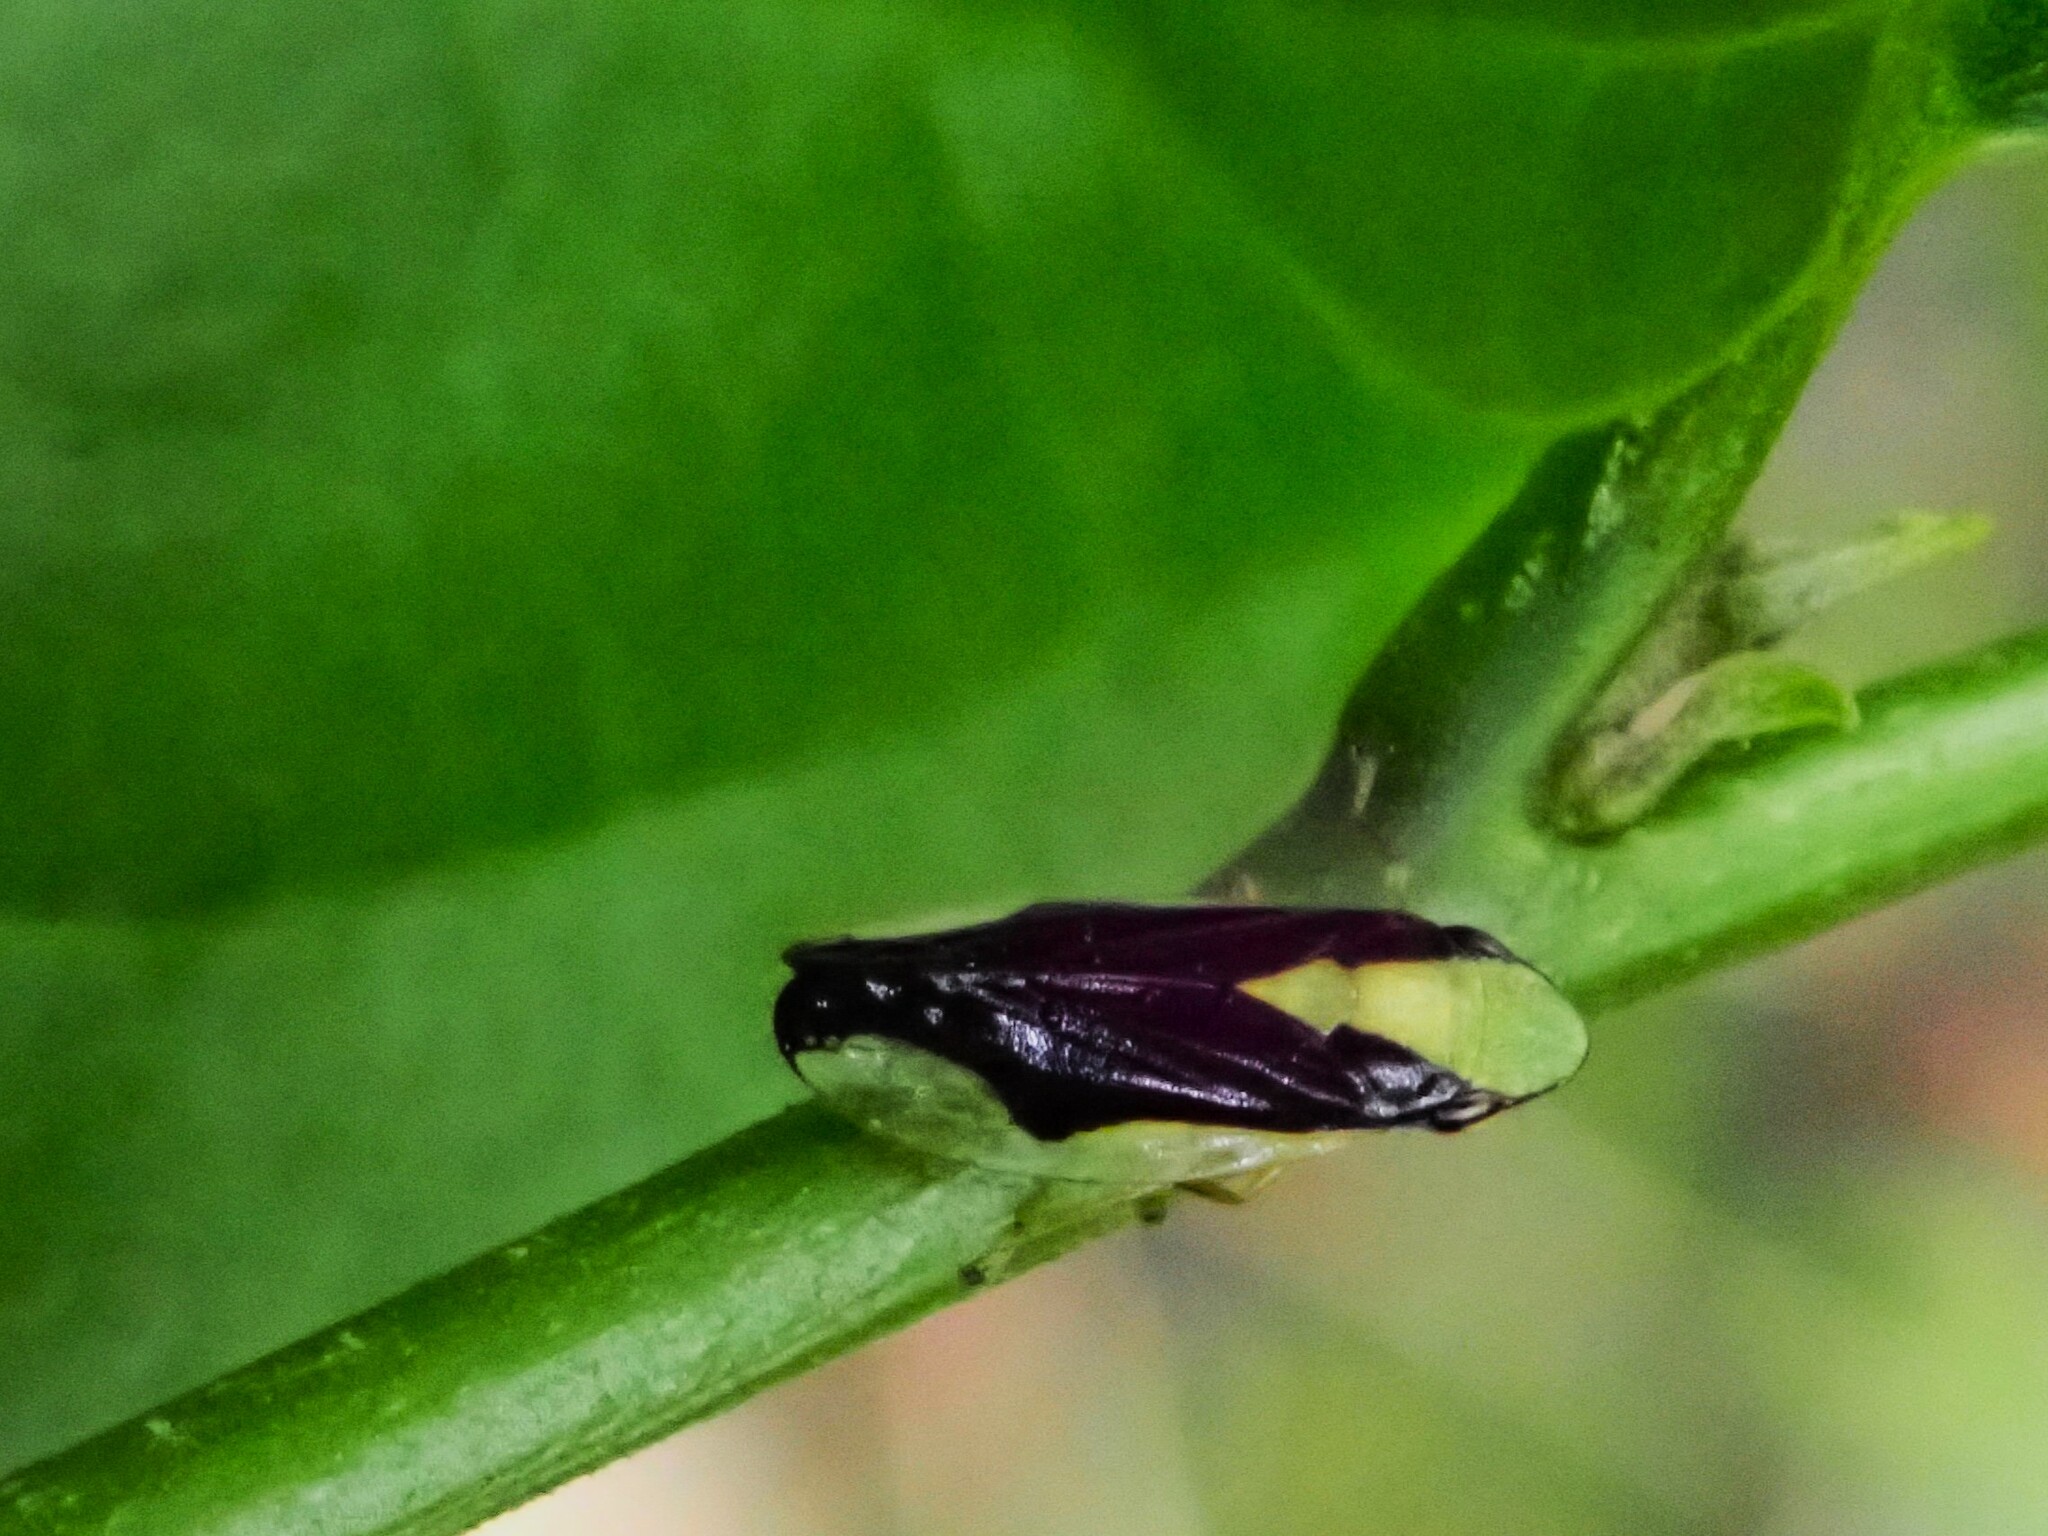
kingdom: Animalia
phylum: Arthropoda
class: Insecta
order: Hemiptera
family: Aphrophoridae
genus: Lallemandana
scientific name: Lallemandana rarotongae
